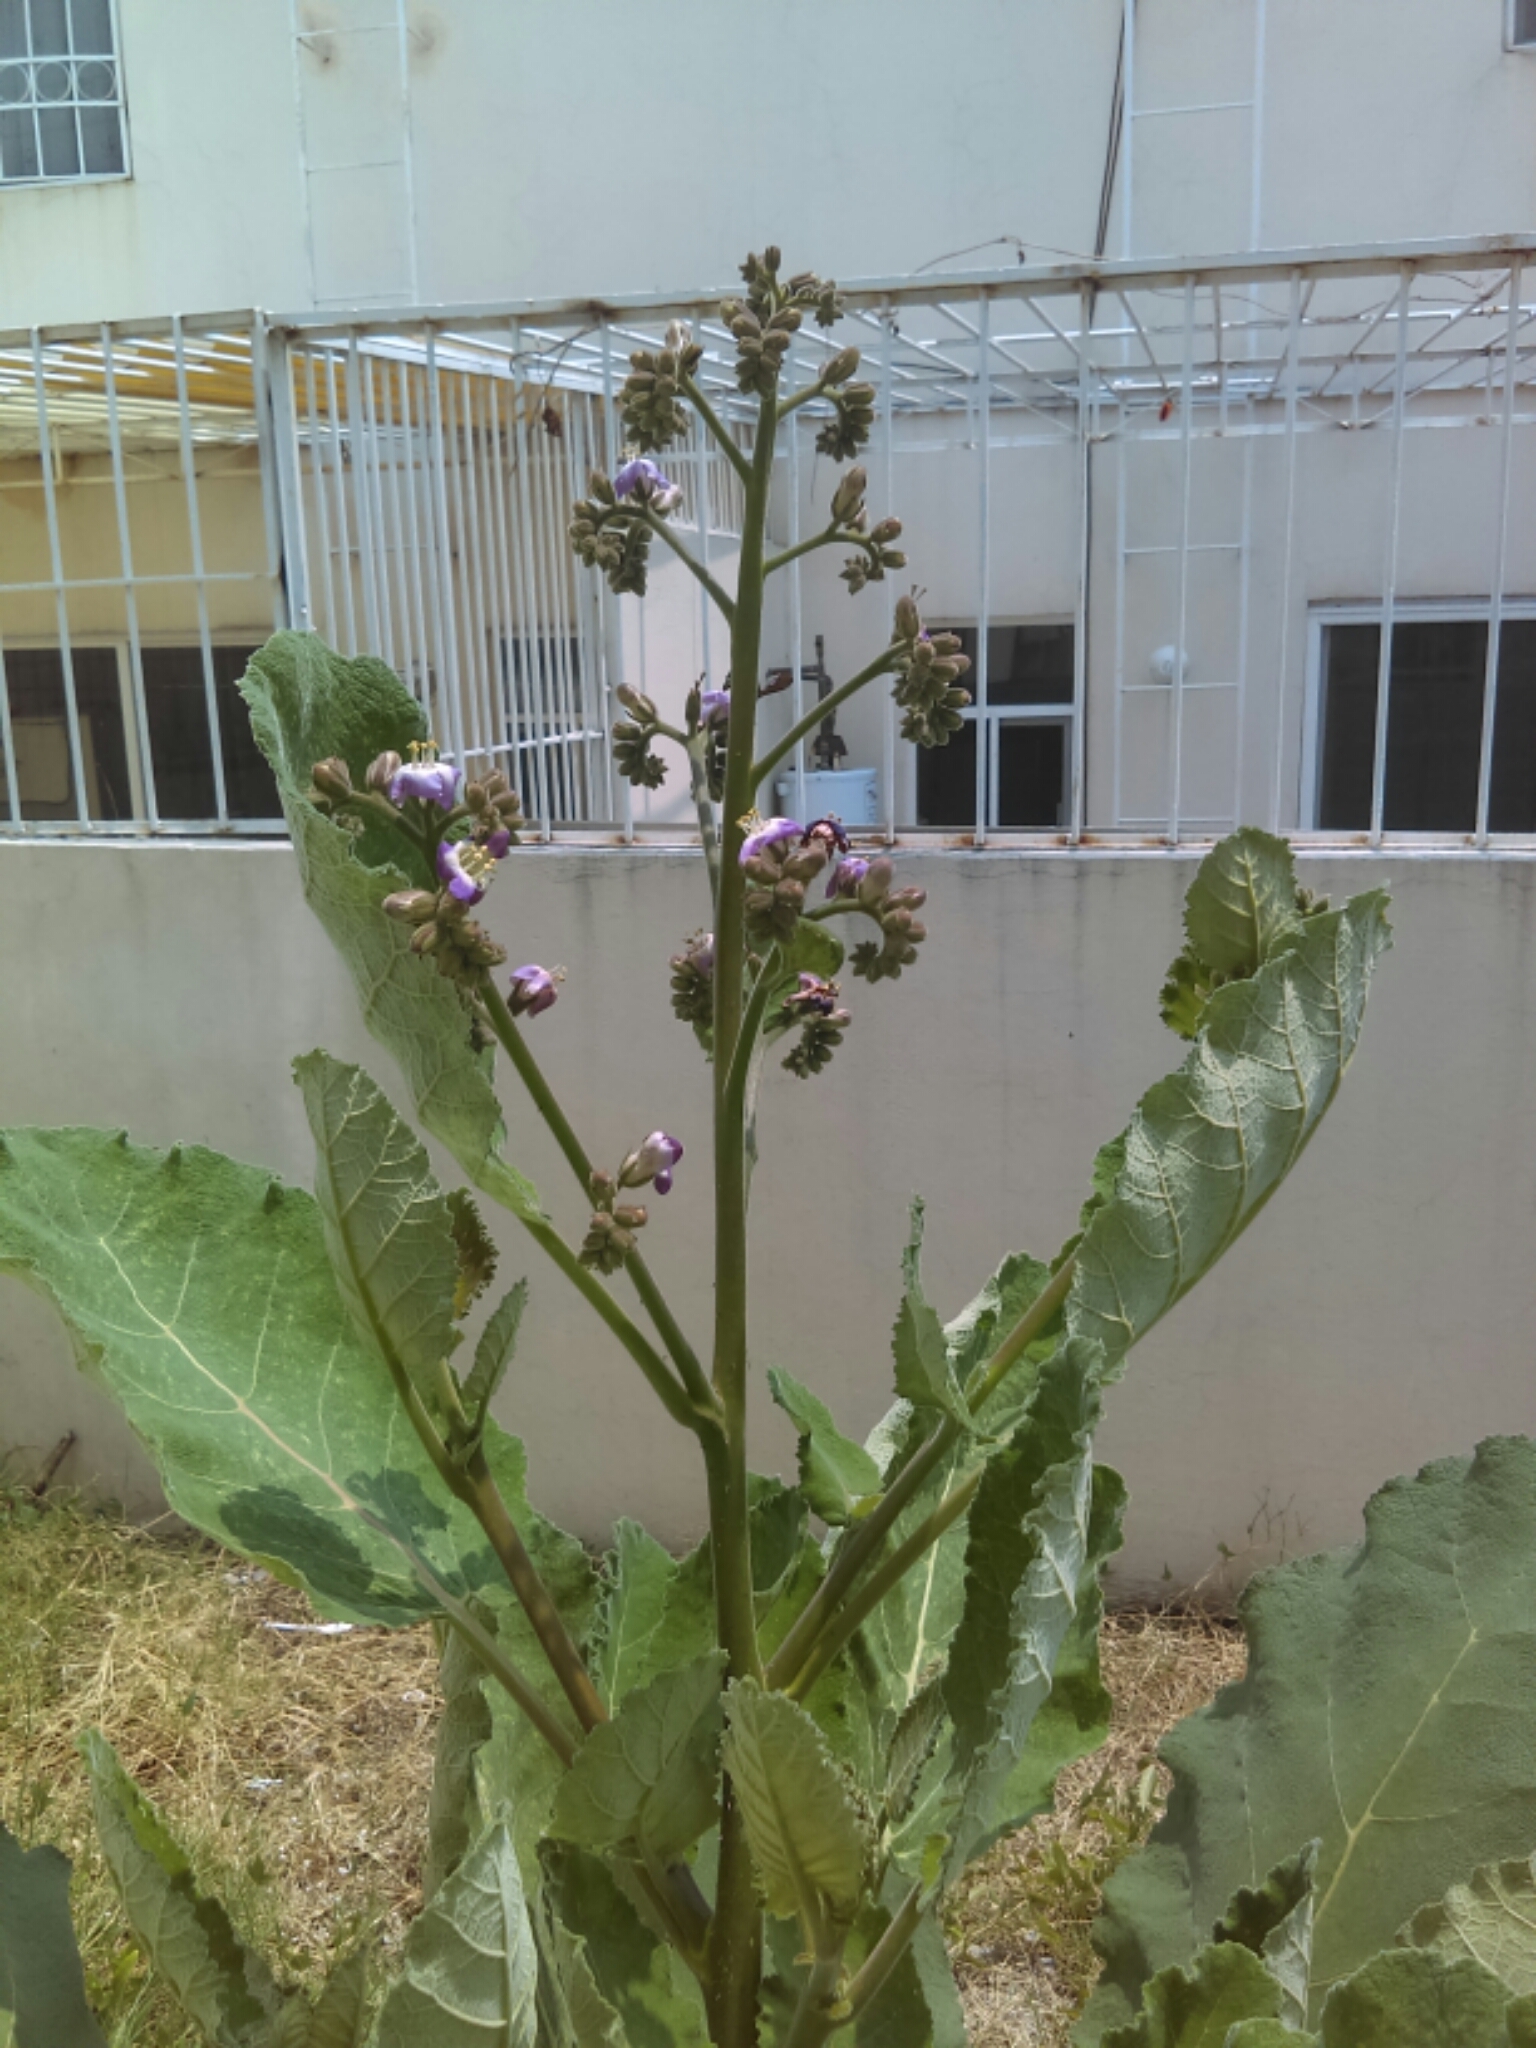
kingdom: Plantae
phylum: Tracheophyta
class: Magnoliopsida
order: Boraginales
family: Namaceae
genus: Wigandia
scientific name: Wigandia urens
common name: Caracus wigandia
